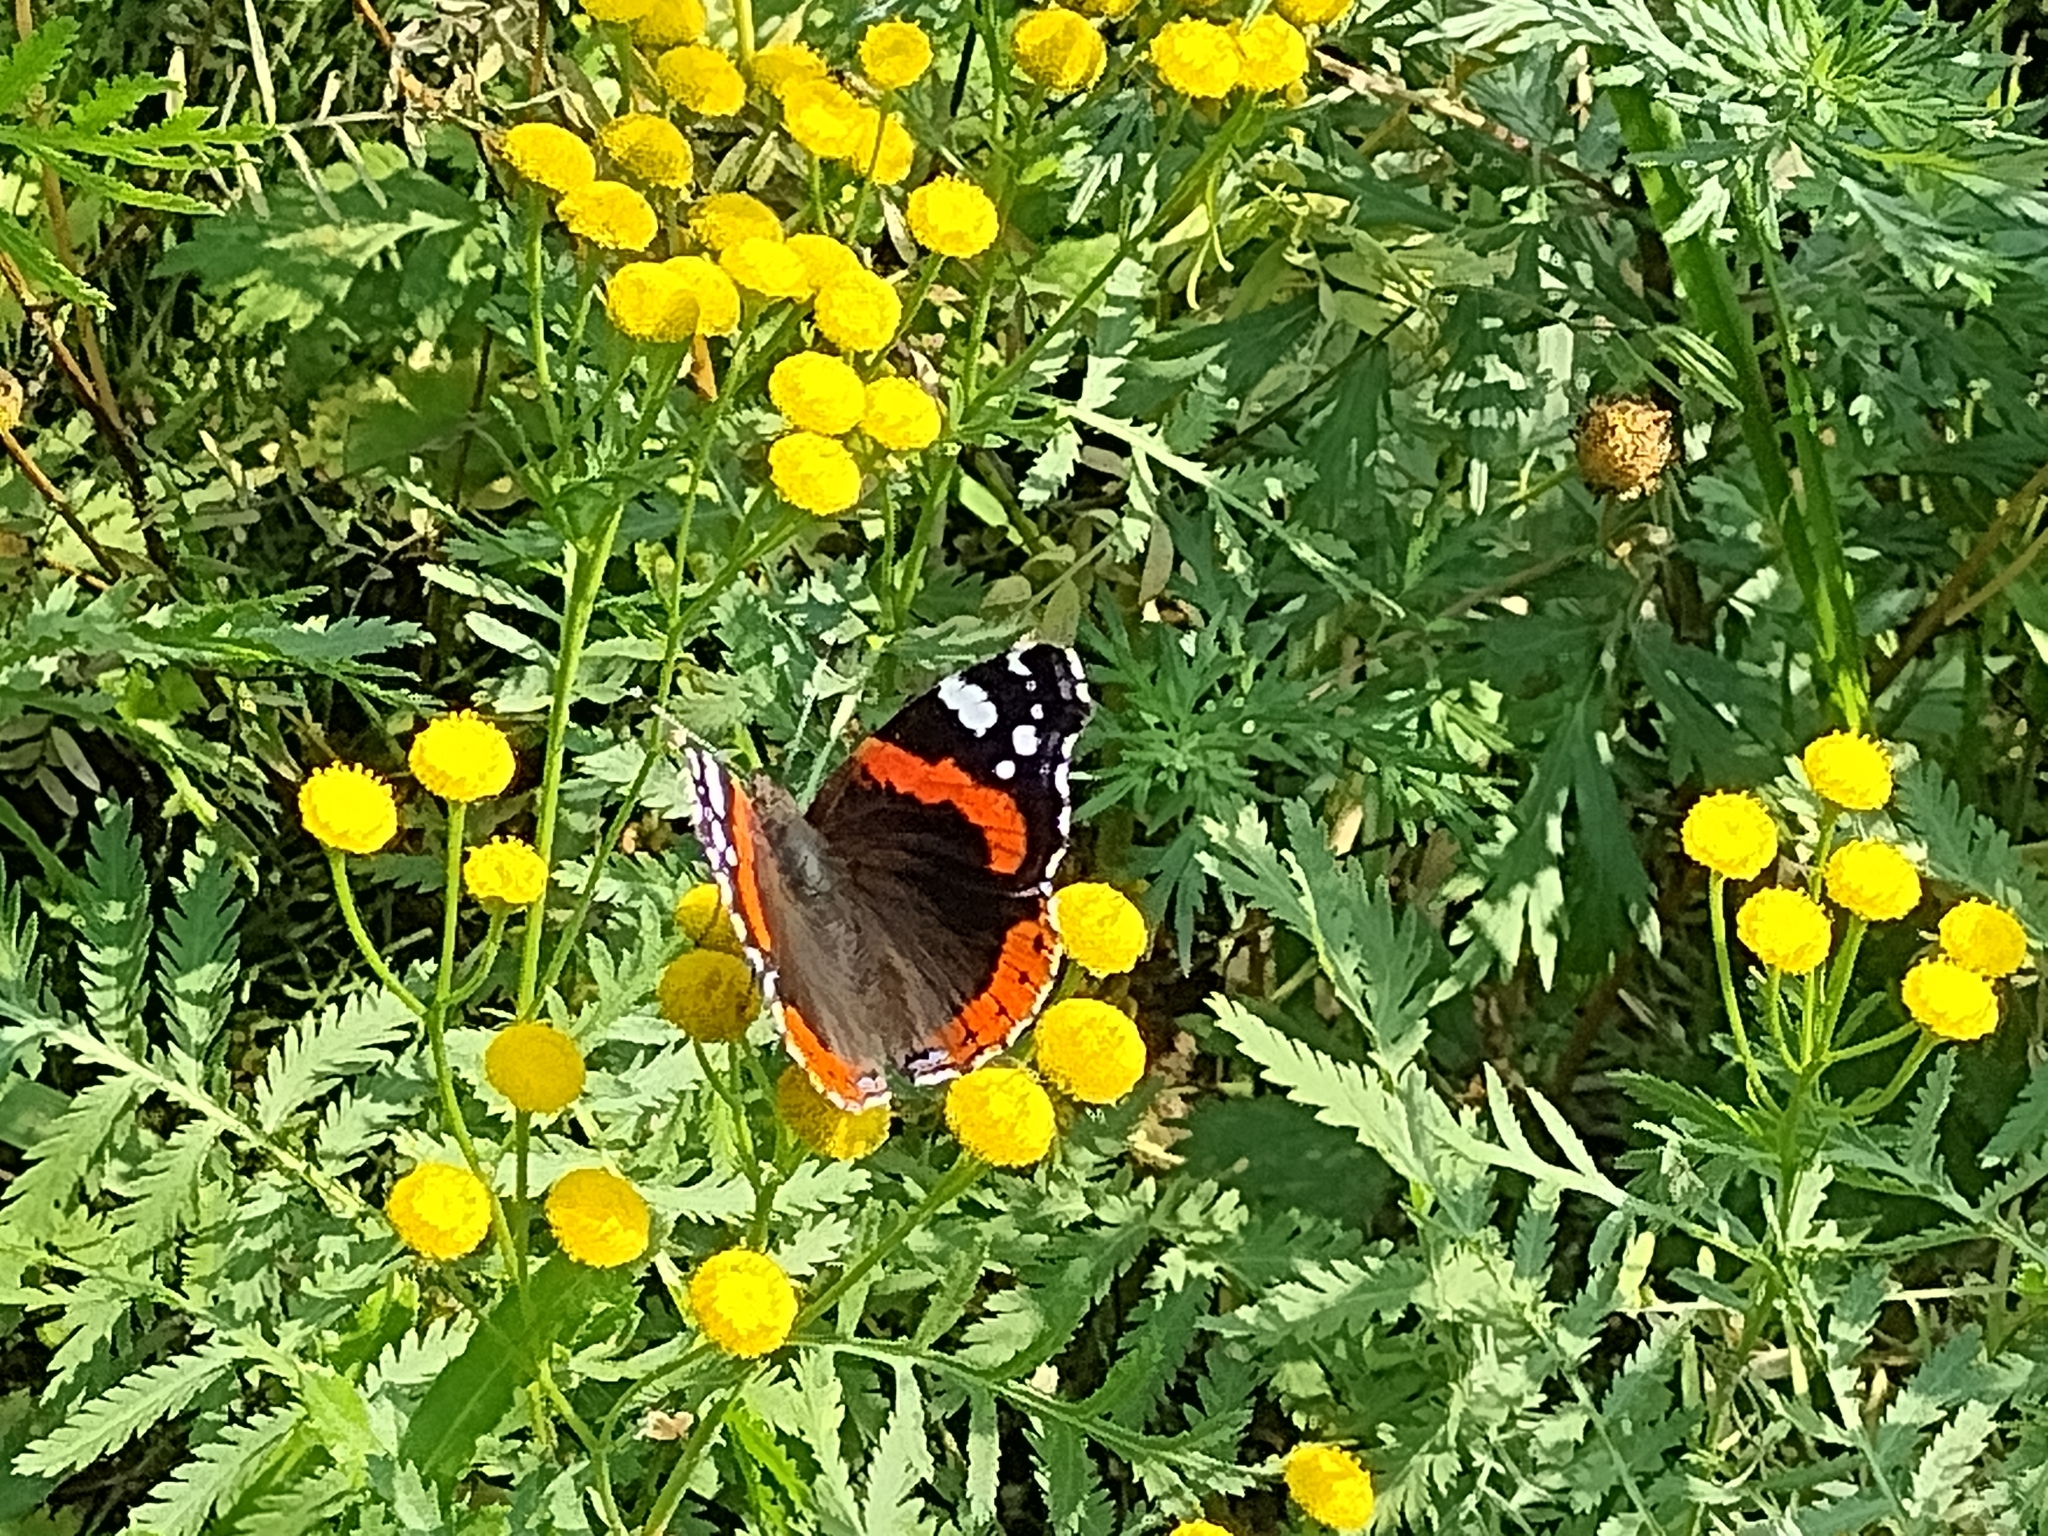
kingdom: Animalia
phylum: Arthropoda
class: Insecta
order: Lepidoptera
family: Nymphalidae
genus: Vanessa
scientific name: Vanessa atalanta
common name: Red admiral
